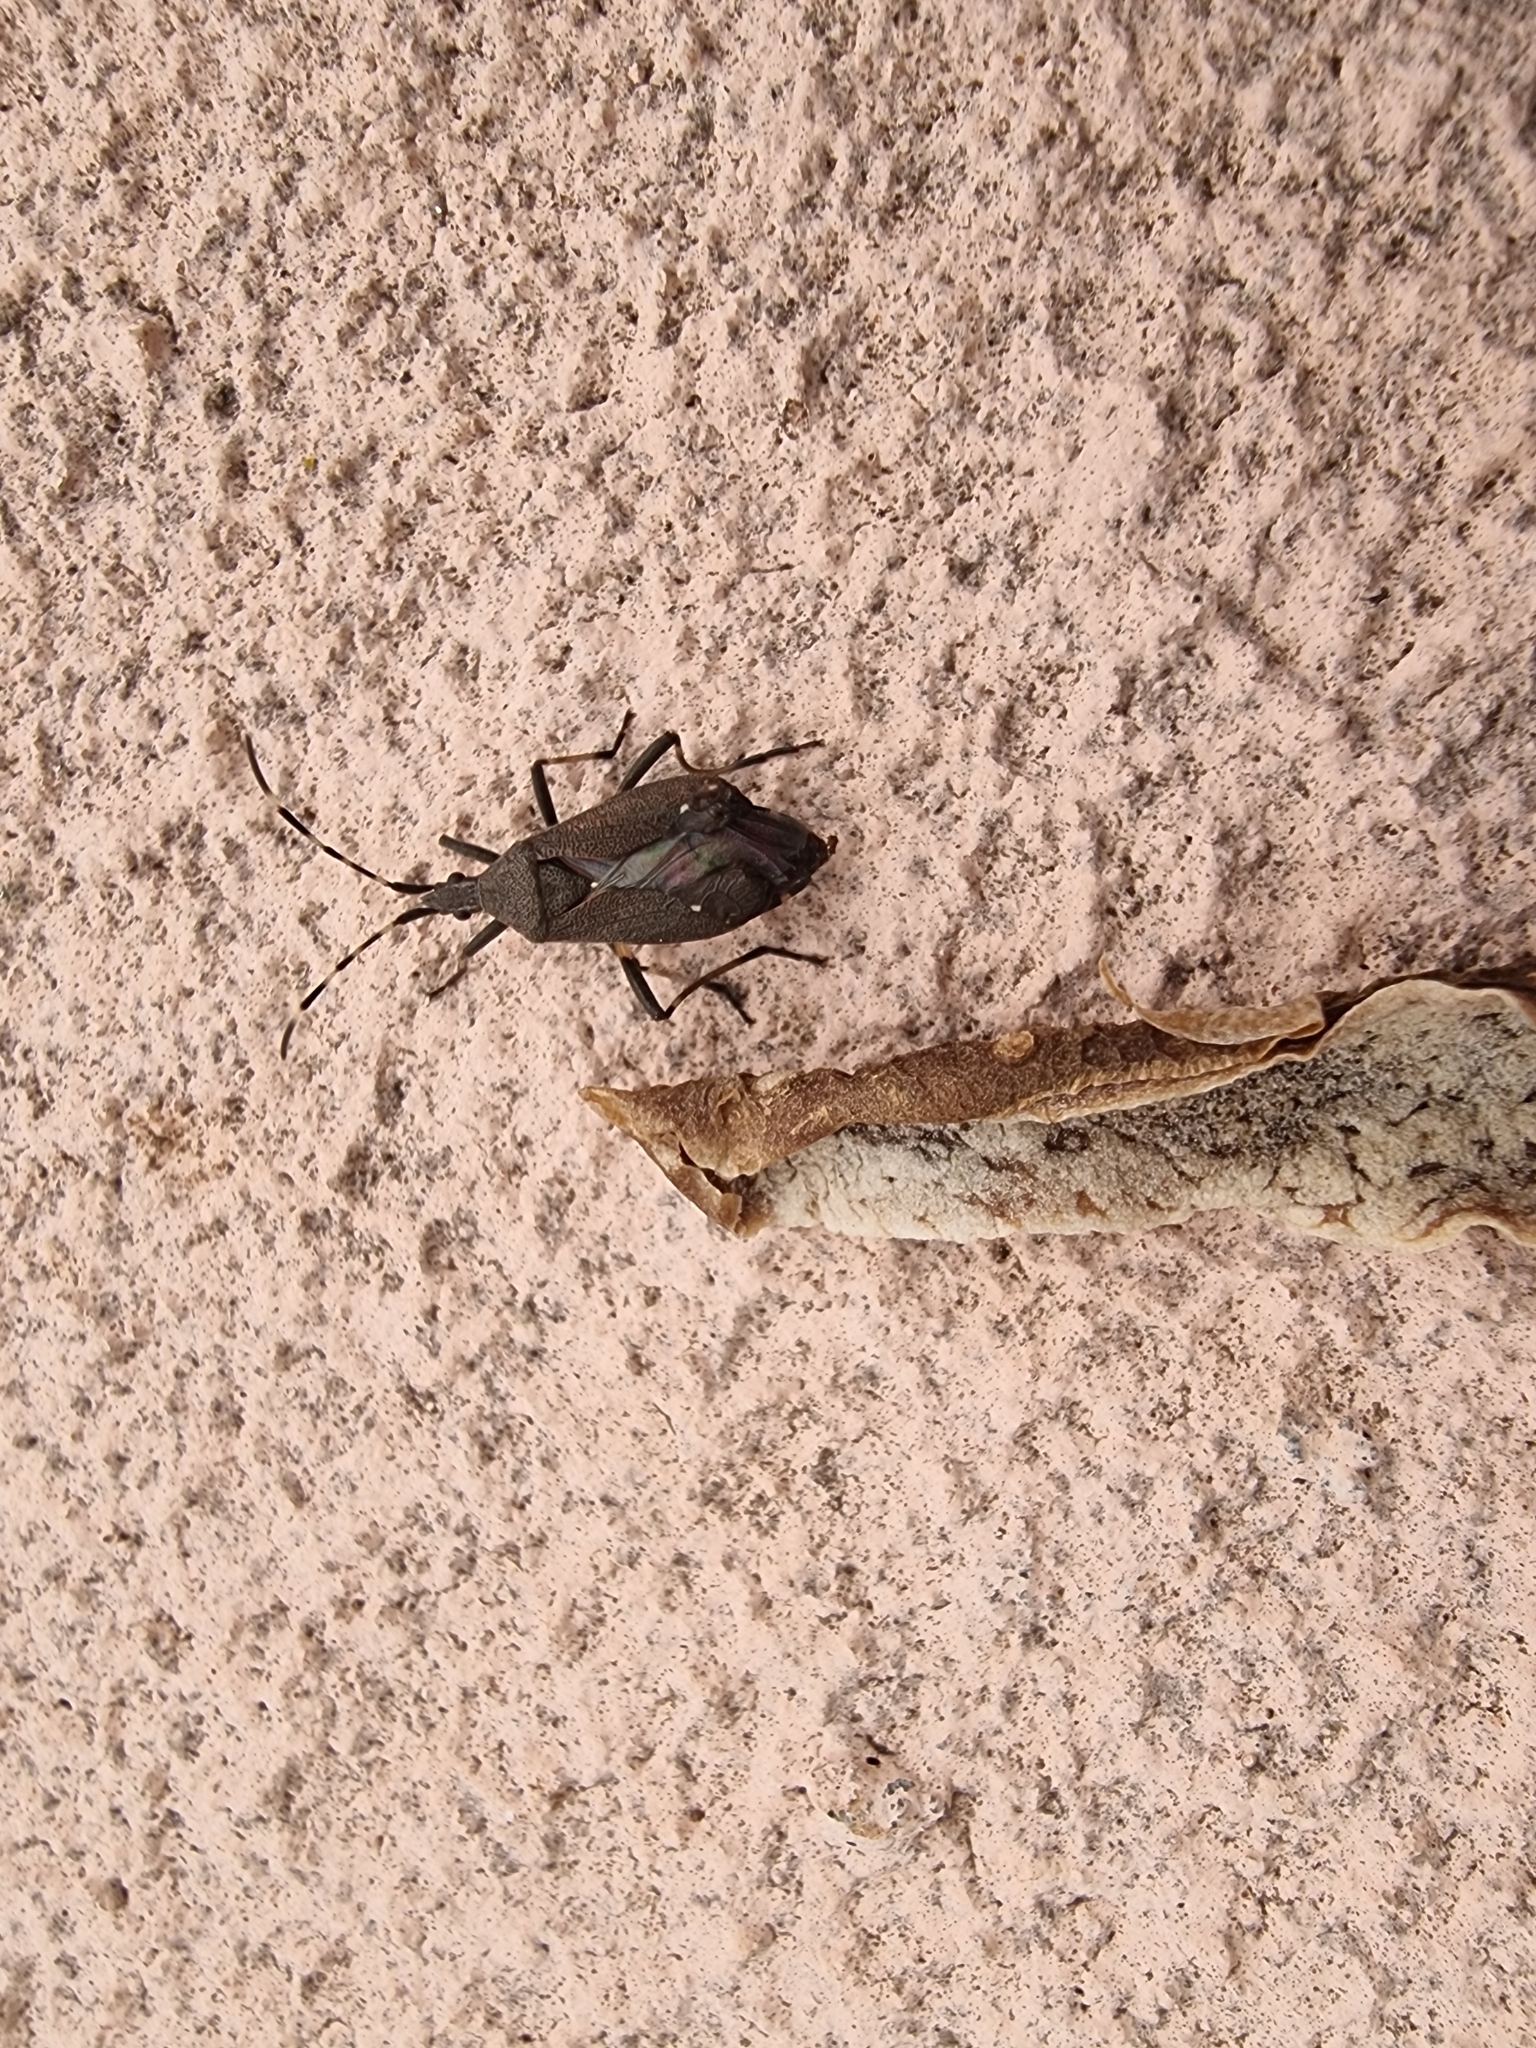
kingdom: Animalia
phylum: Arthropoda
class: Insecta
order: Hemiptera
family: Stenocephalidae
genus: Dicranocephalus
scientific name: Dicranocephalus agilis
